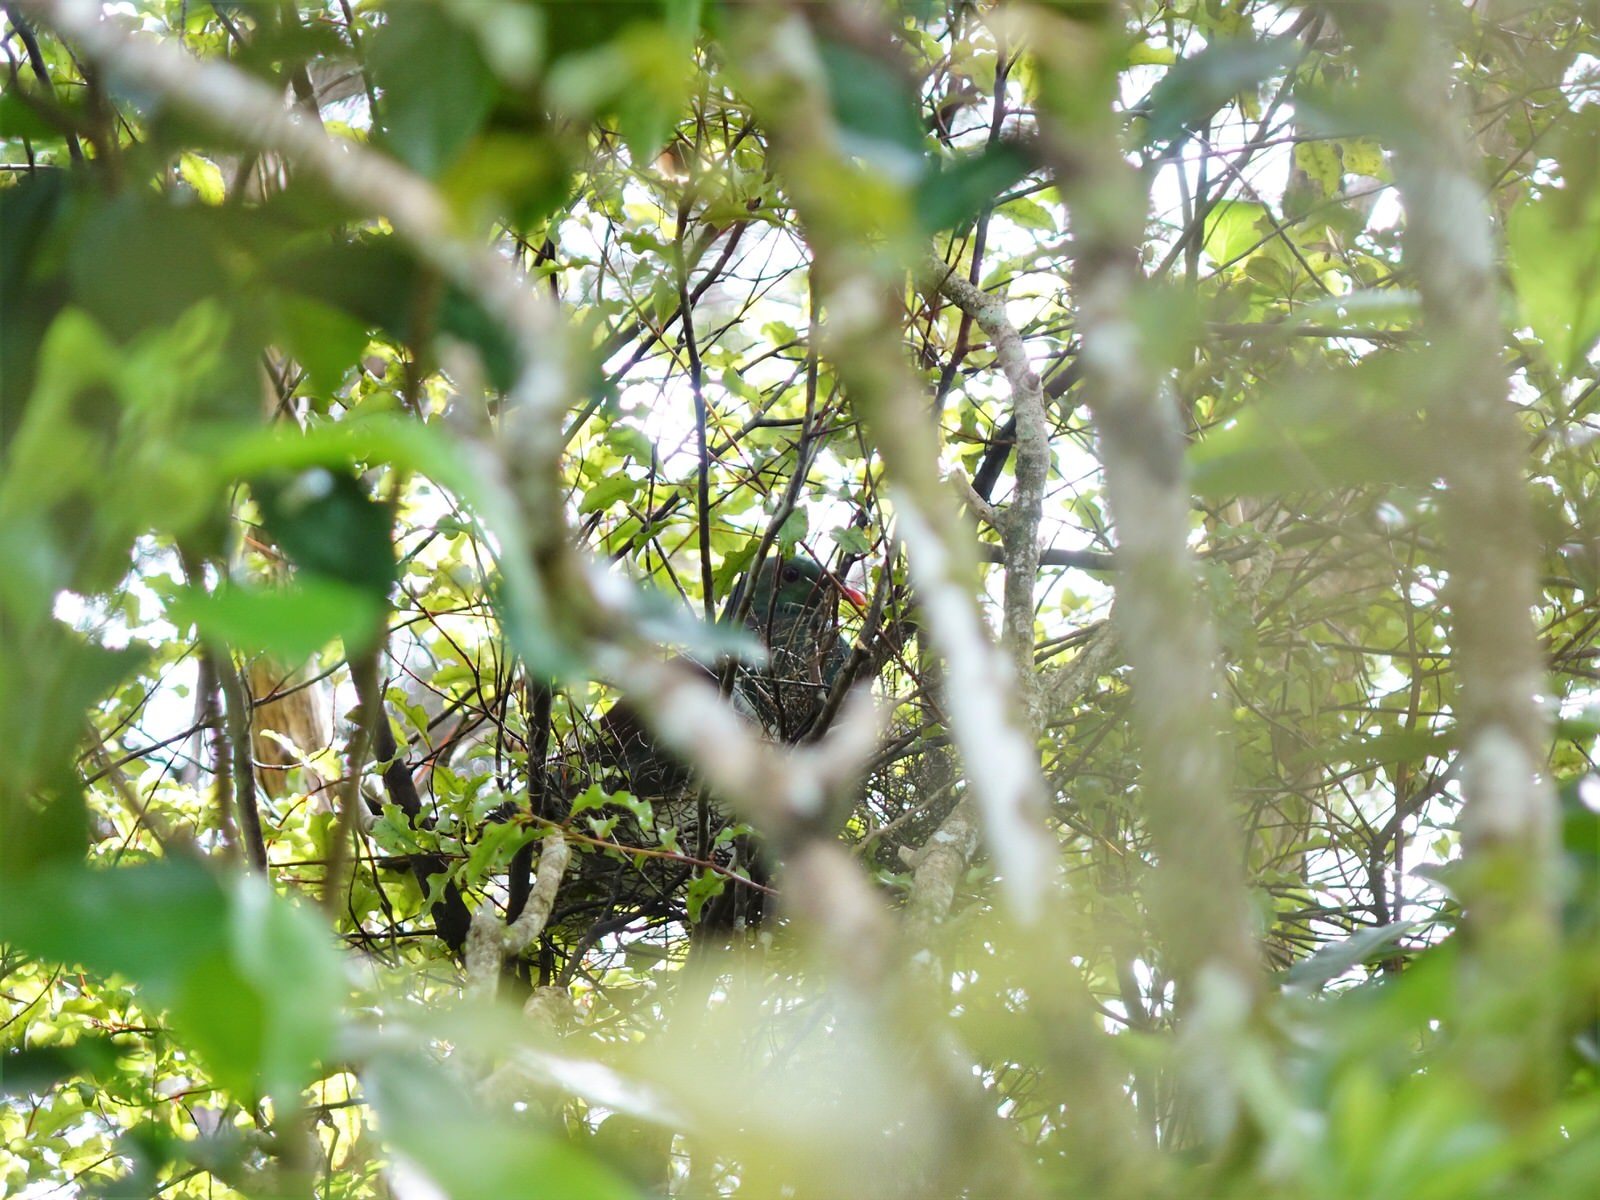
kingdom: Animalia
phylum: Chordata
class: Aves
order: Columbiformes
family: Columbidae
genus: Hemiphaga
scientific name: Hemiphaga novaeseelandiae
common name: New zealand pigeon
